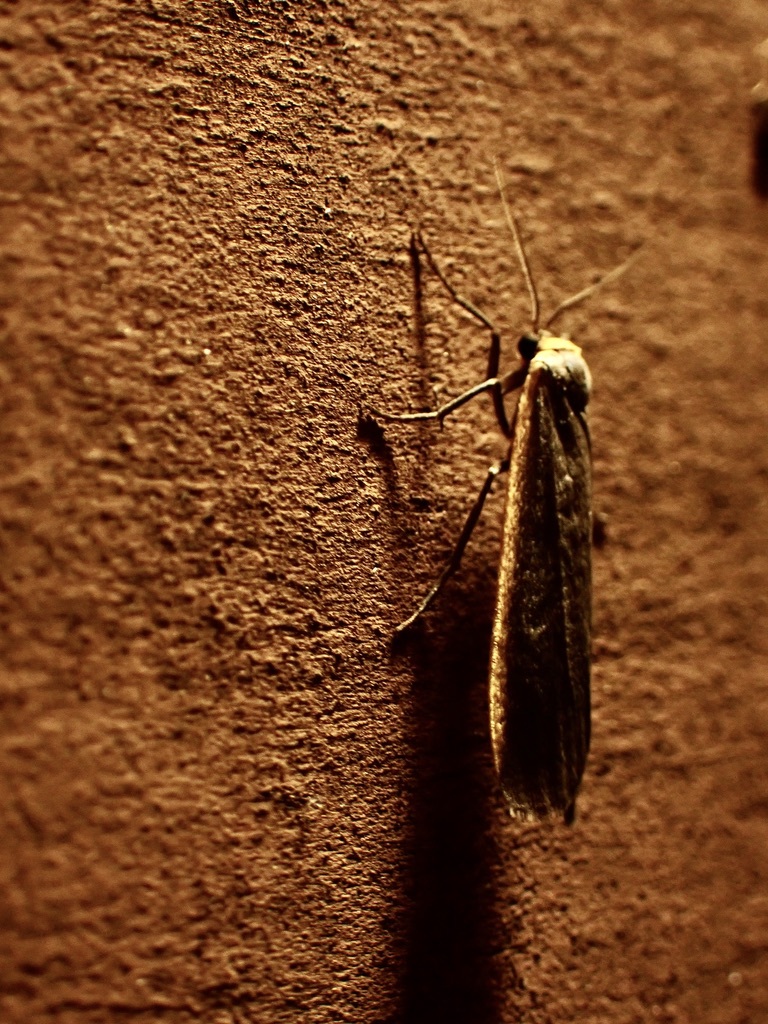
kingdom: Animalia
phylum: Arthropoda
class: Insecta
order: Lepidoptera
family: Erebidae
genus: Manulea
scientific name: Manulea bicolor
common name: Bicolored moth
